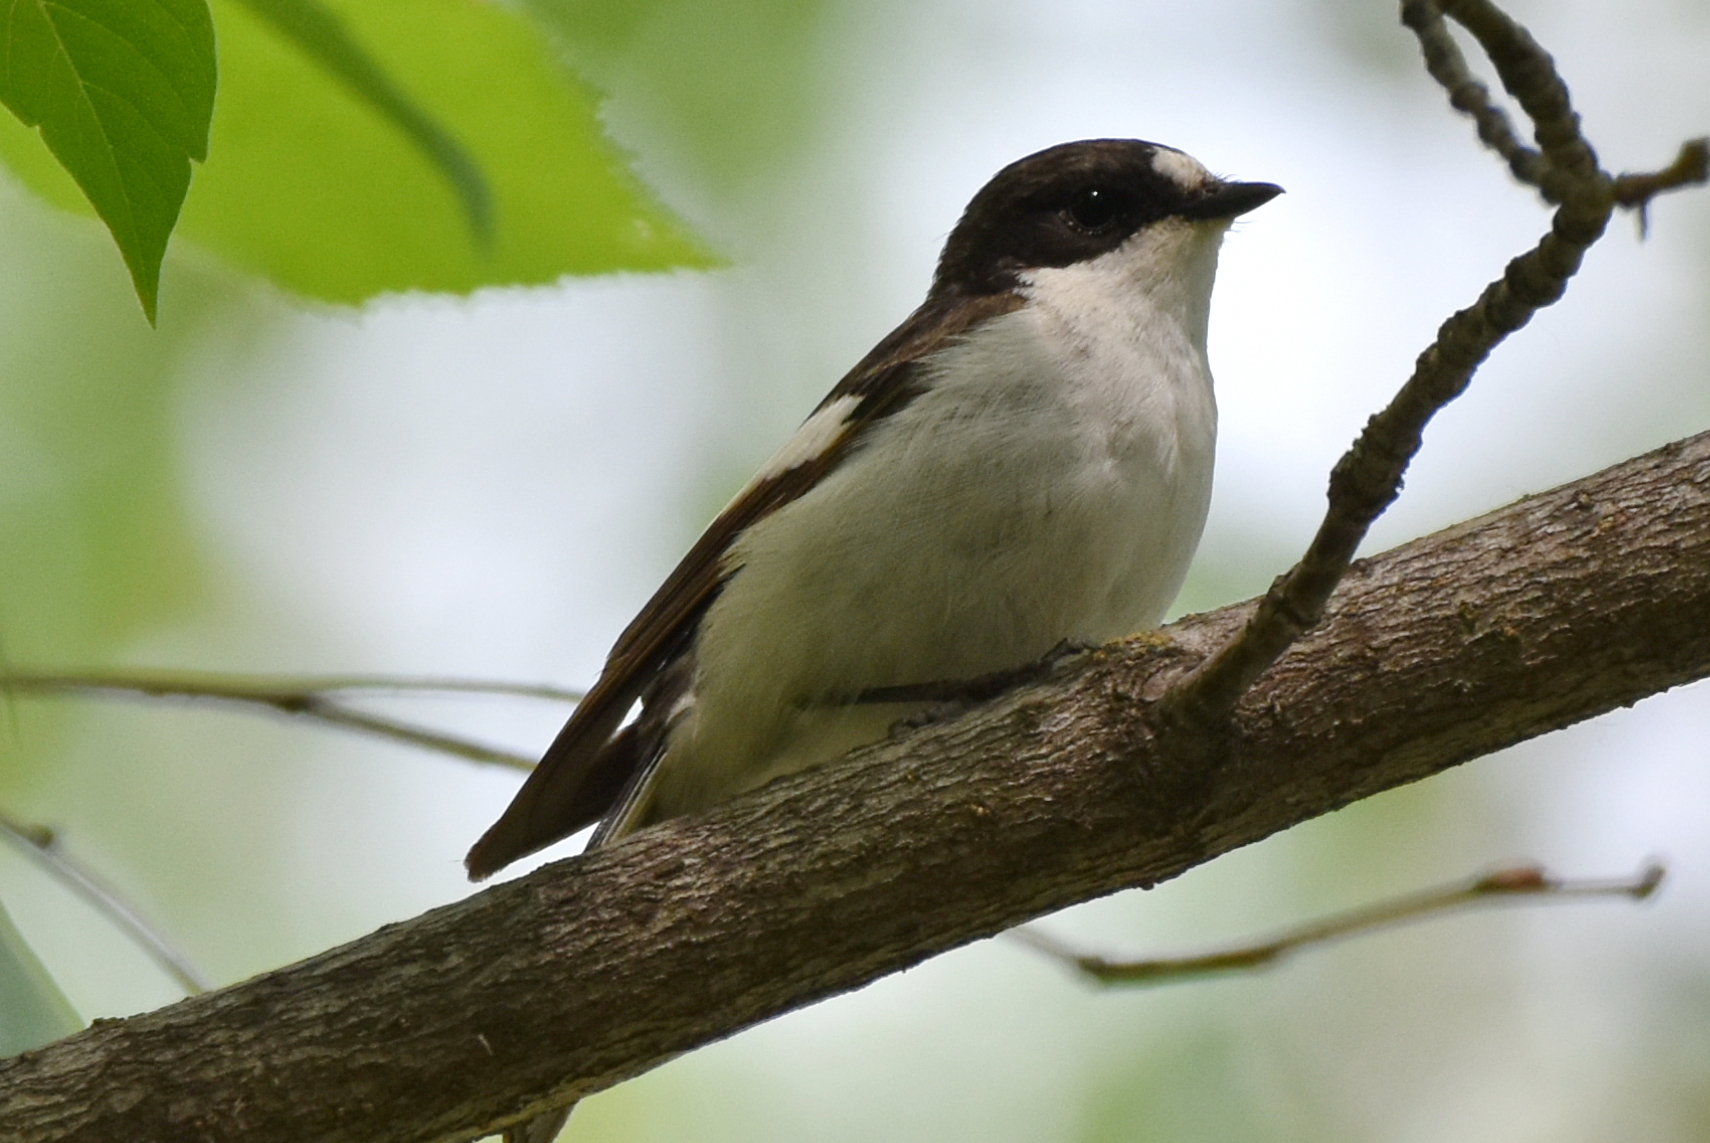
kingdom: Animalia
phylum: Chordata
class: Aves
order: Passeriformes
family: Muscicapidae
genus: Ficedula
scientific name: Ficedula hypoleuca
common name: European pied flycatcher
